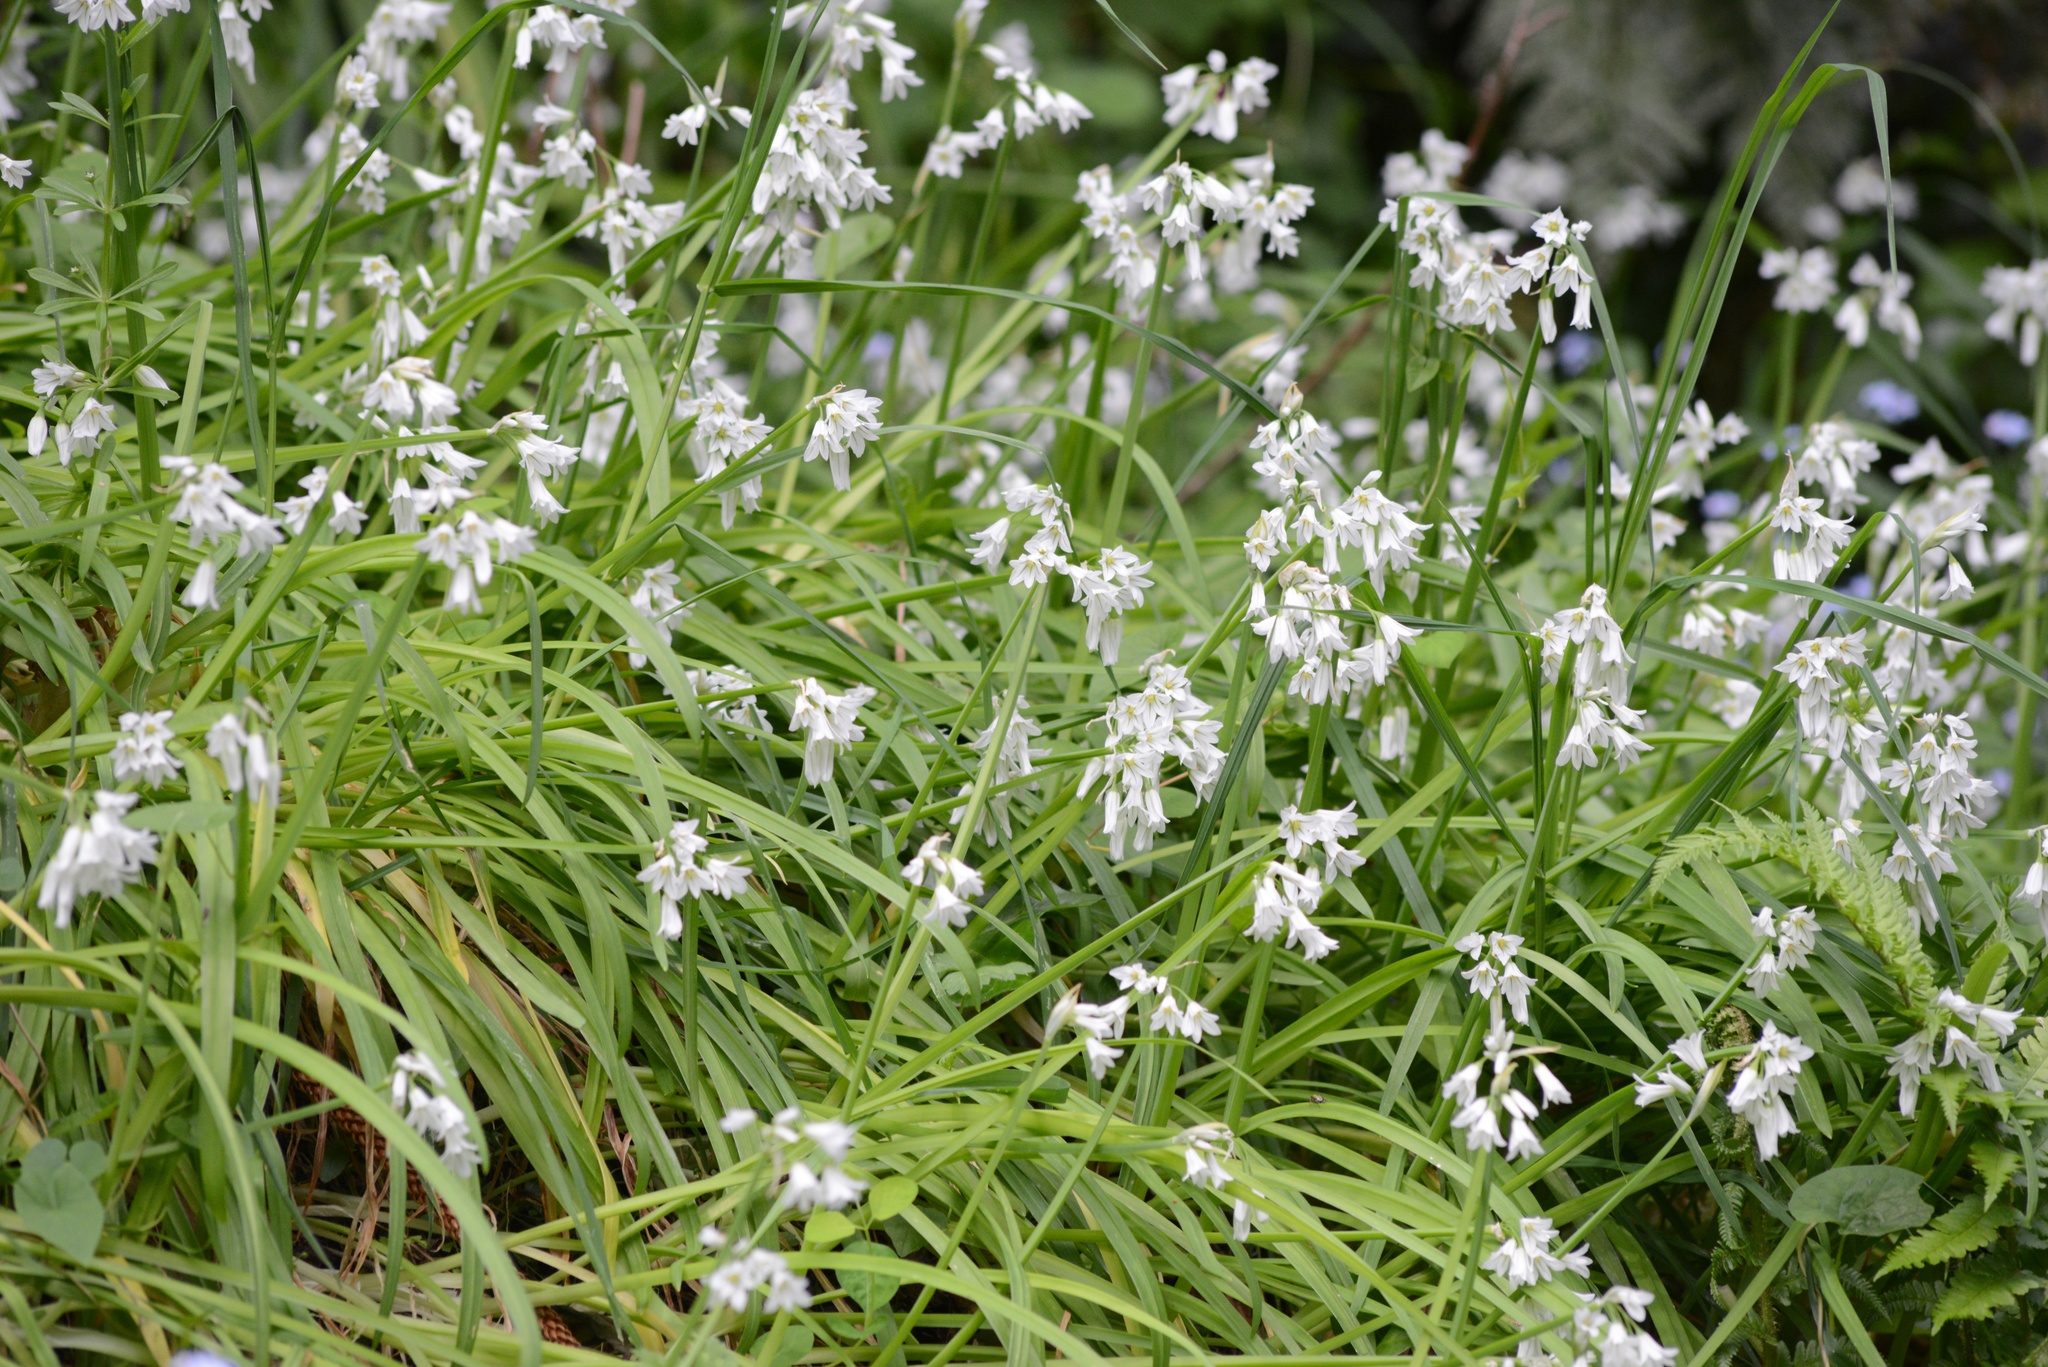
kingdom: Plantae
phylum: Tracheophyta
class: Liliopsida
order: Asparagales
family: Amaryllidaceae
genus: Allium
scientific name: Allium triquetrum
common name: Three-cornered garlic
